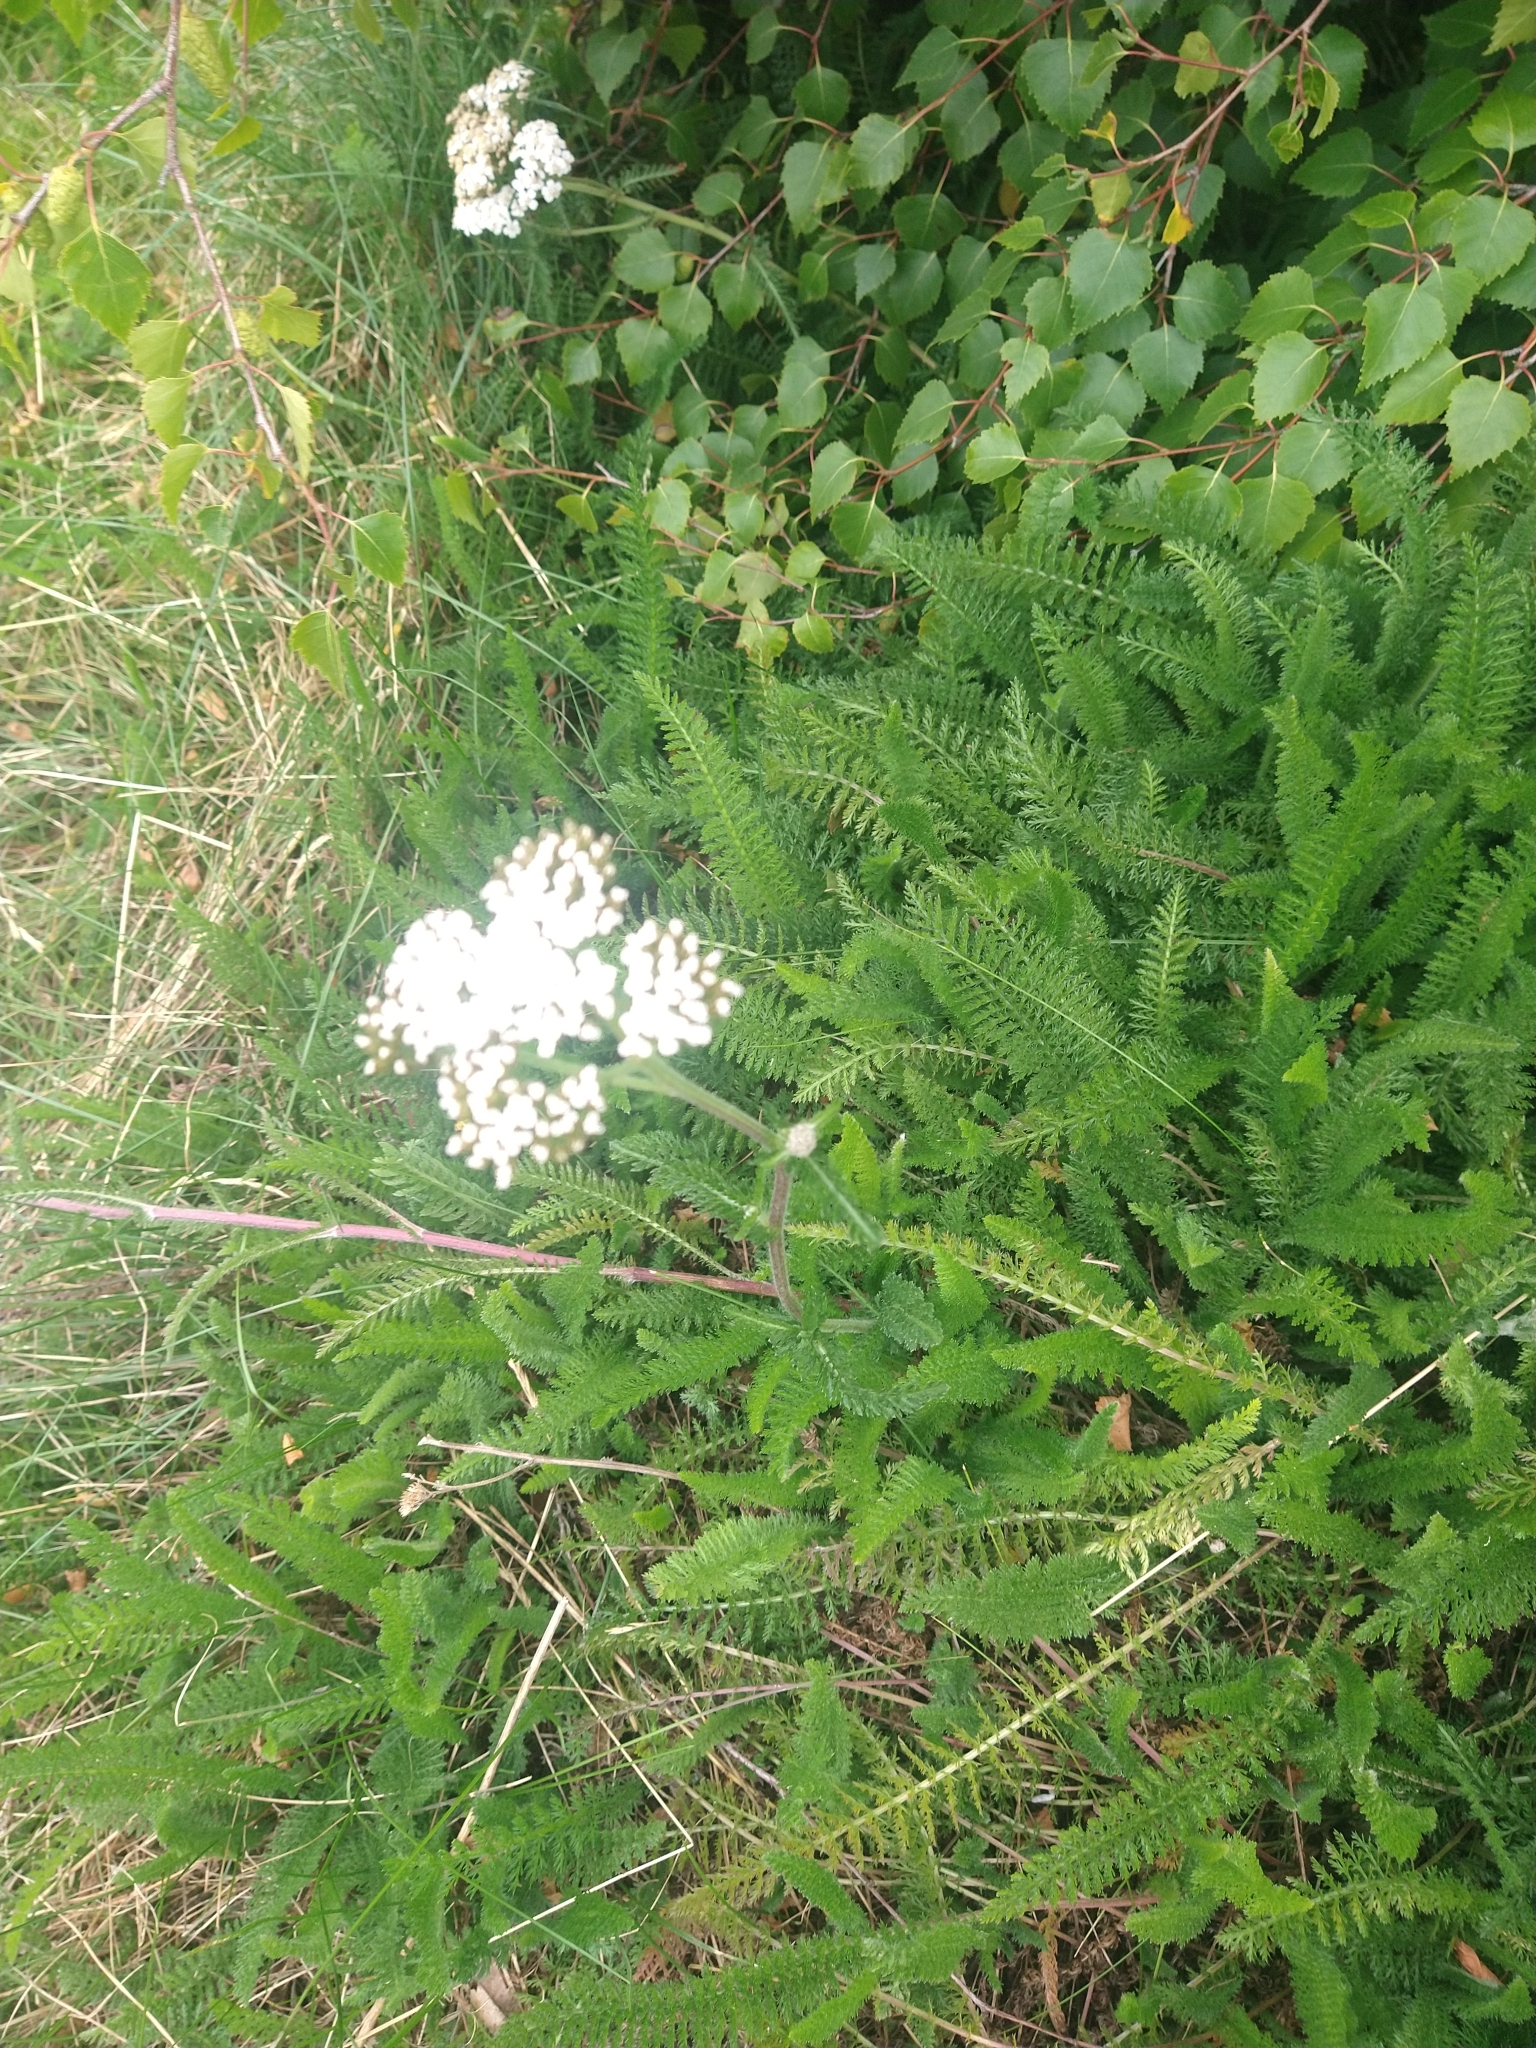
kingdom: Plantae
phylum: Tracheophyta
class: Magnoliopsida
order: Asterales
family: Asteraceae
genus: Achillea
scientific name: Achillea millefolium
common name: Yarrow
